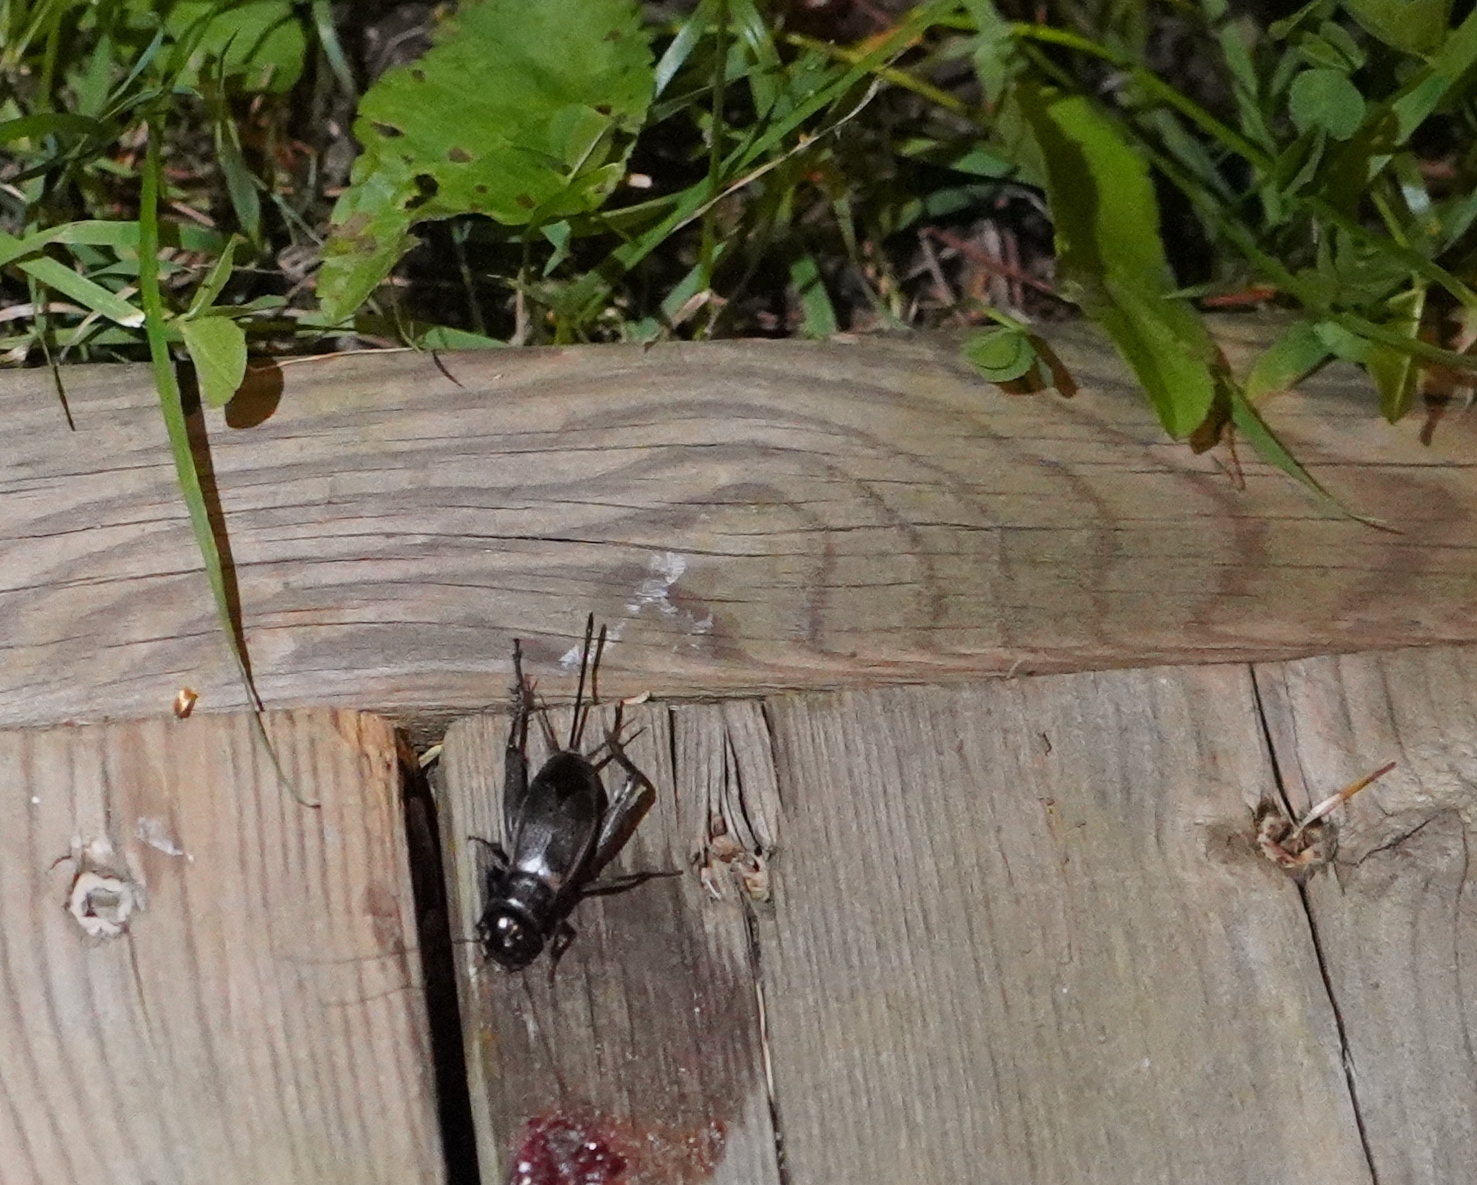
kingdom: Animalia
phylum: Arthropoda
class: Insecta
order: Orthoptera
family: Gryllidae
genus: Gryllus
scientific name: Gryllus pennsylvanicus
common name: Fall field cricket
